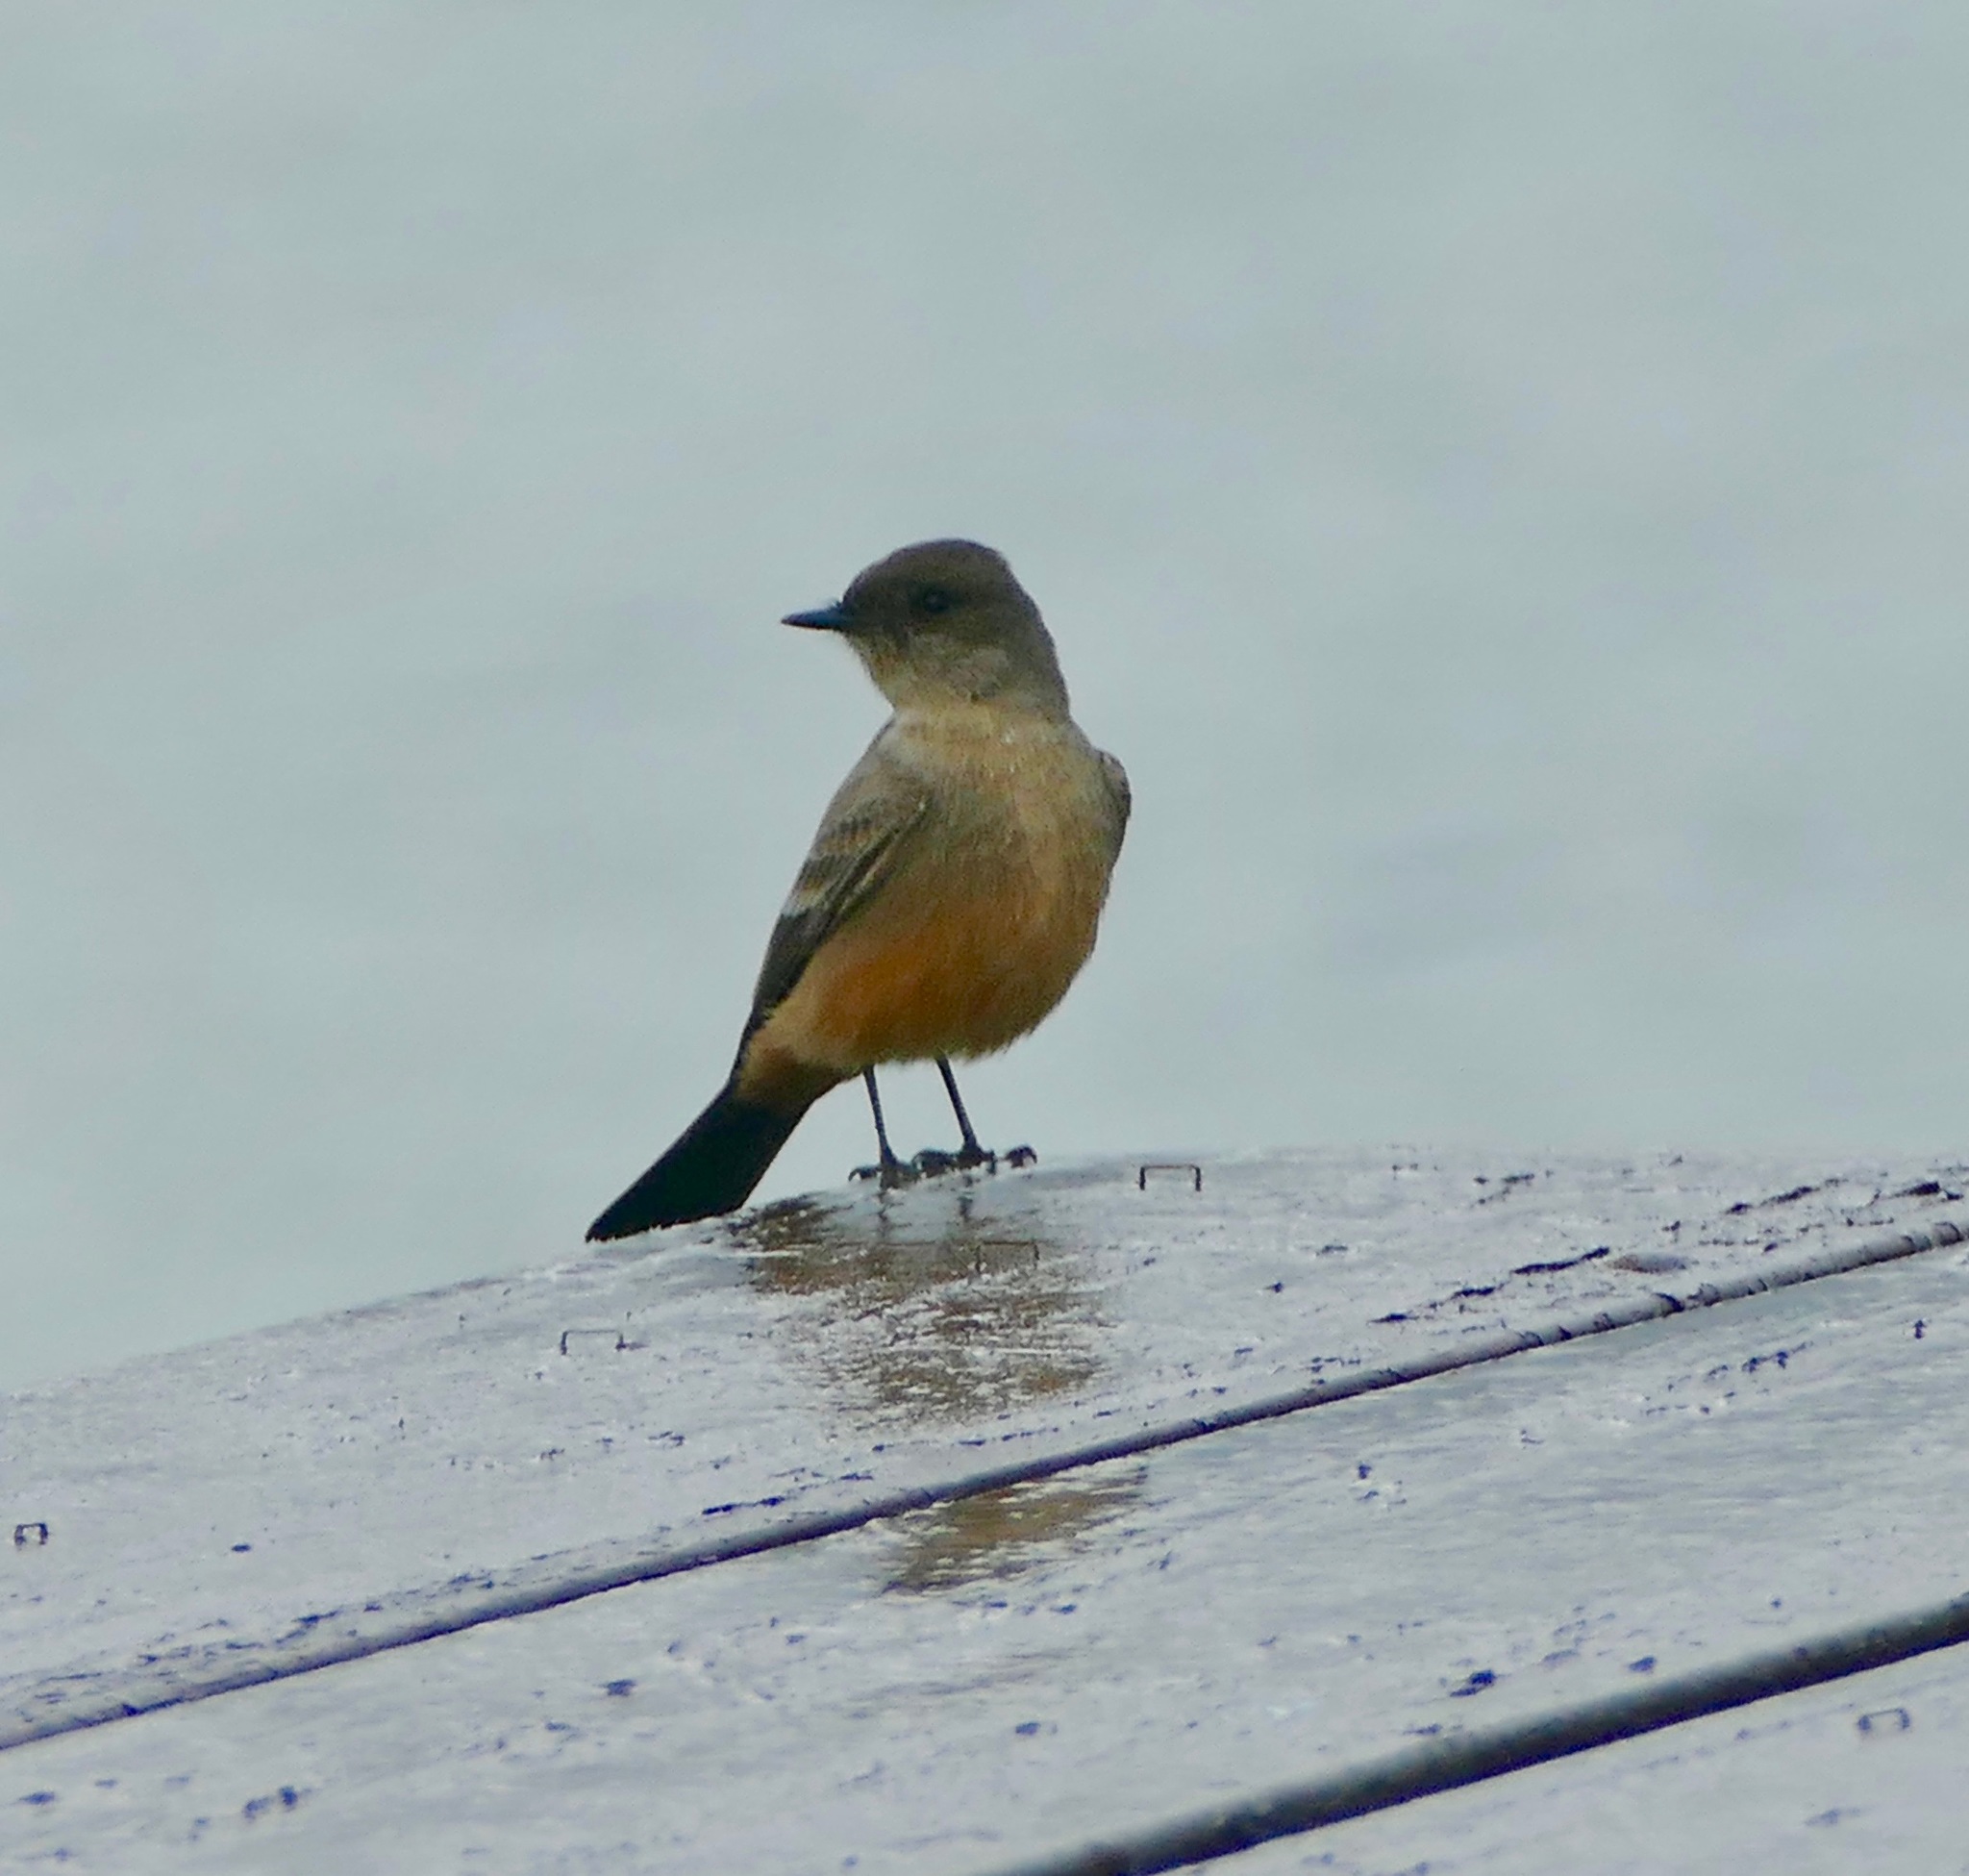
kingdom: Animalia
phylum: Chordata
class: Aves
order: Passeriformes
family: Tyrannidae
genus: Sayornis
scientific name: Sayornis saya
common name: Say's phoebe
